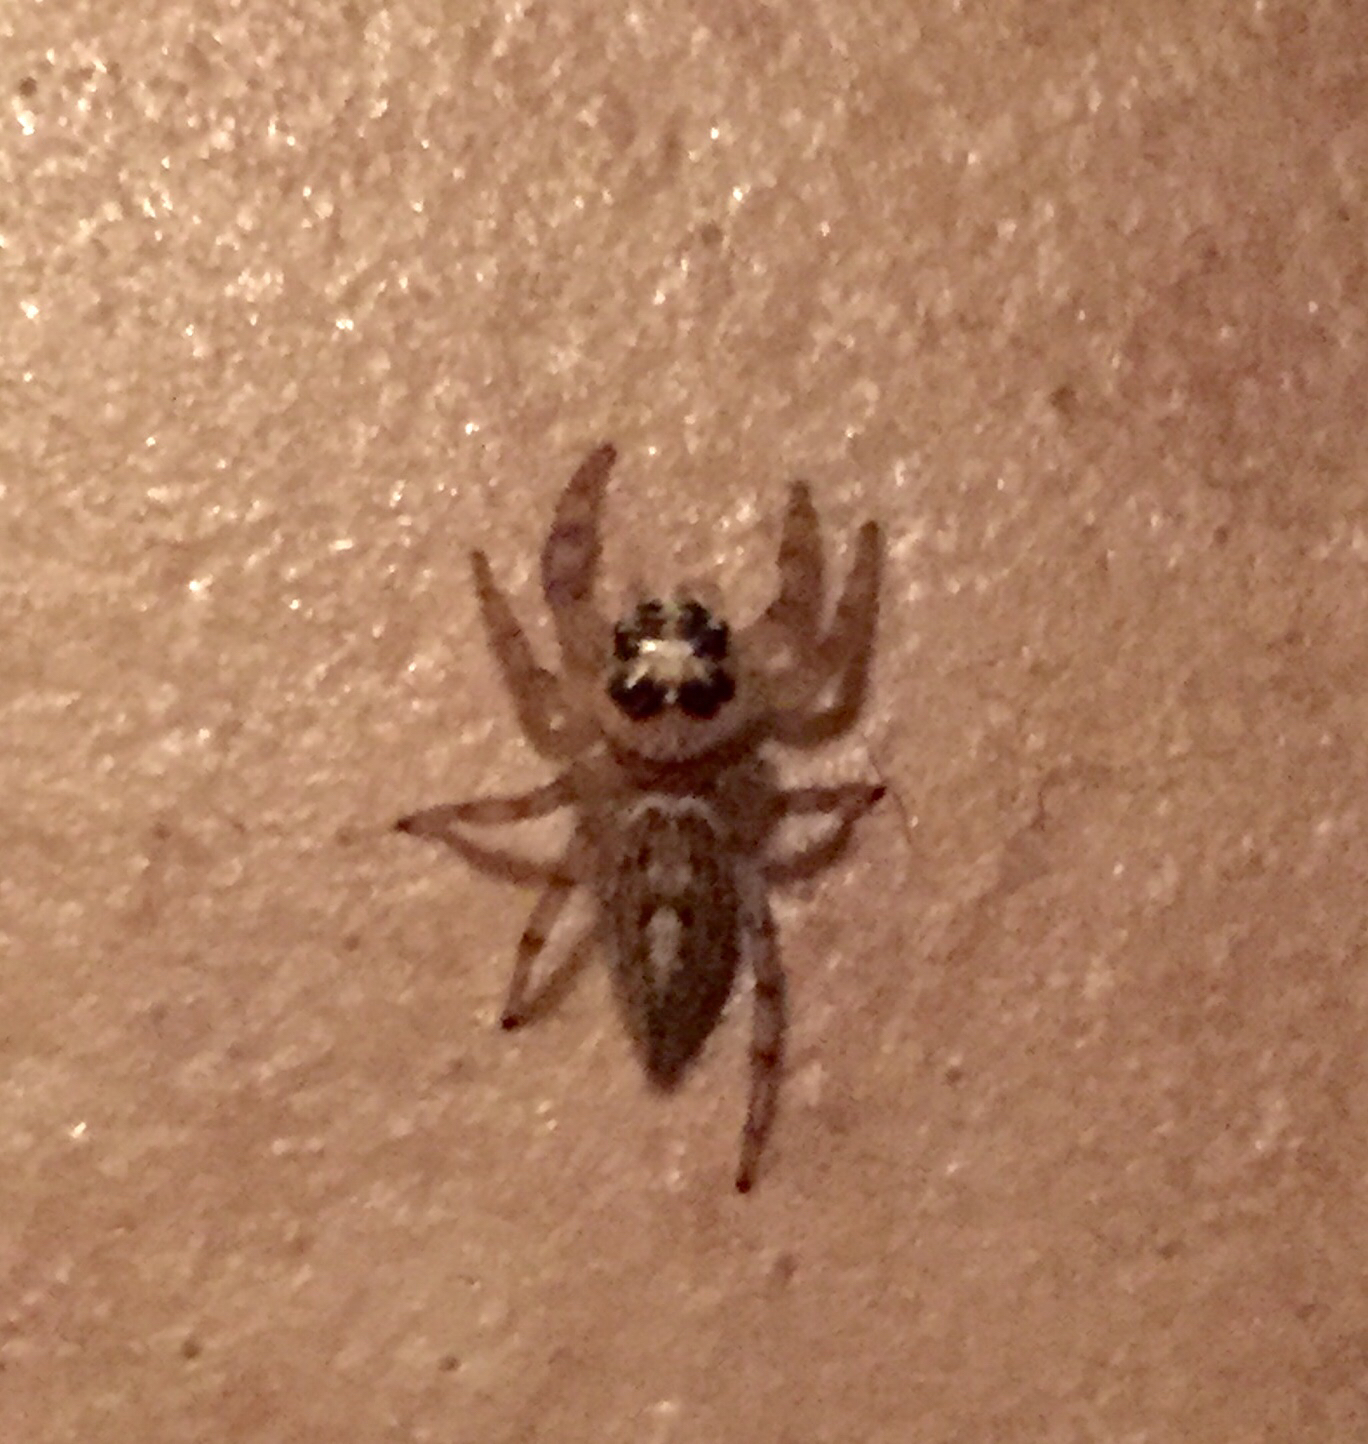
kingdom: Animalia
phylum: Arthropoda
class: Arachnida
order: Araneae
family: Salticidae
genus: Colonus
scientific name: Colonus hesperus
